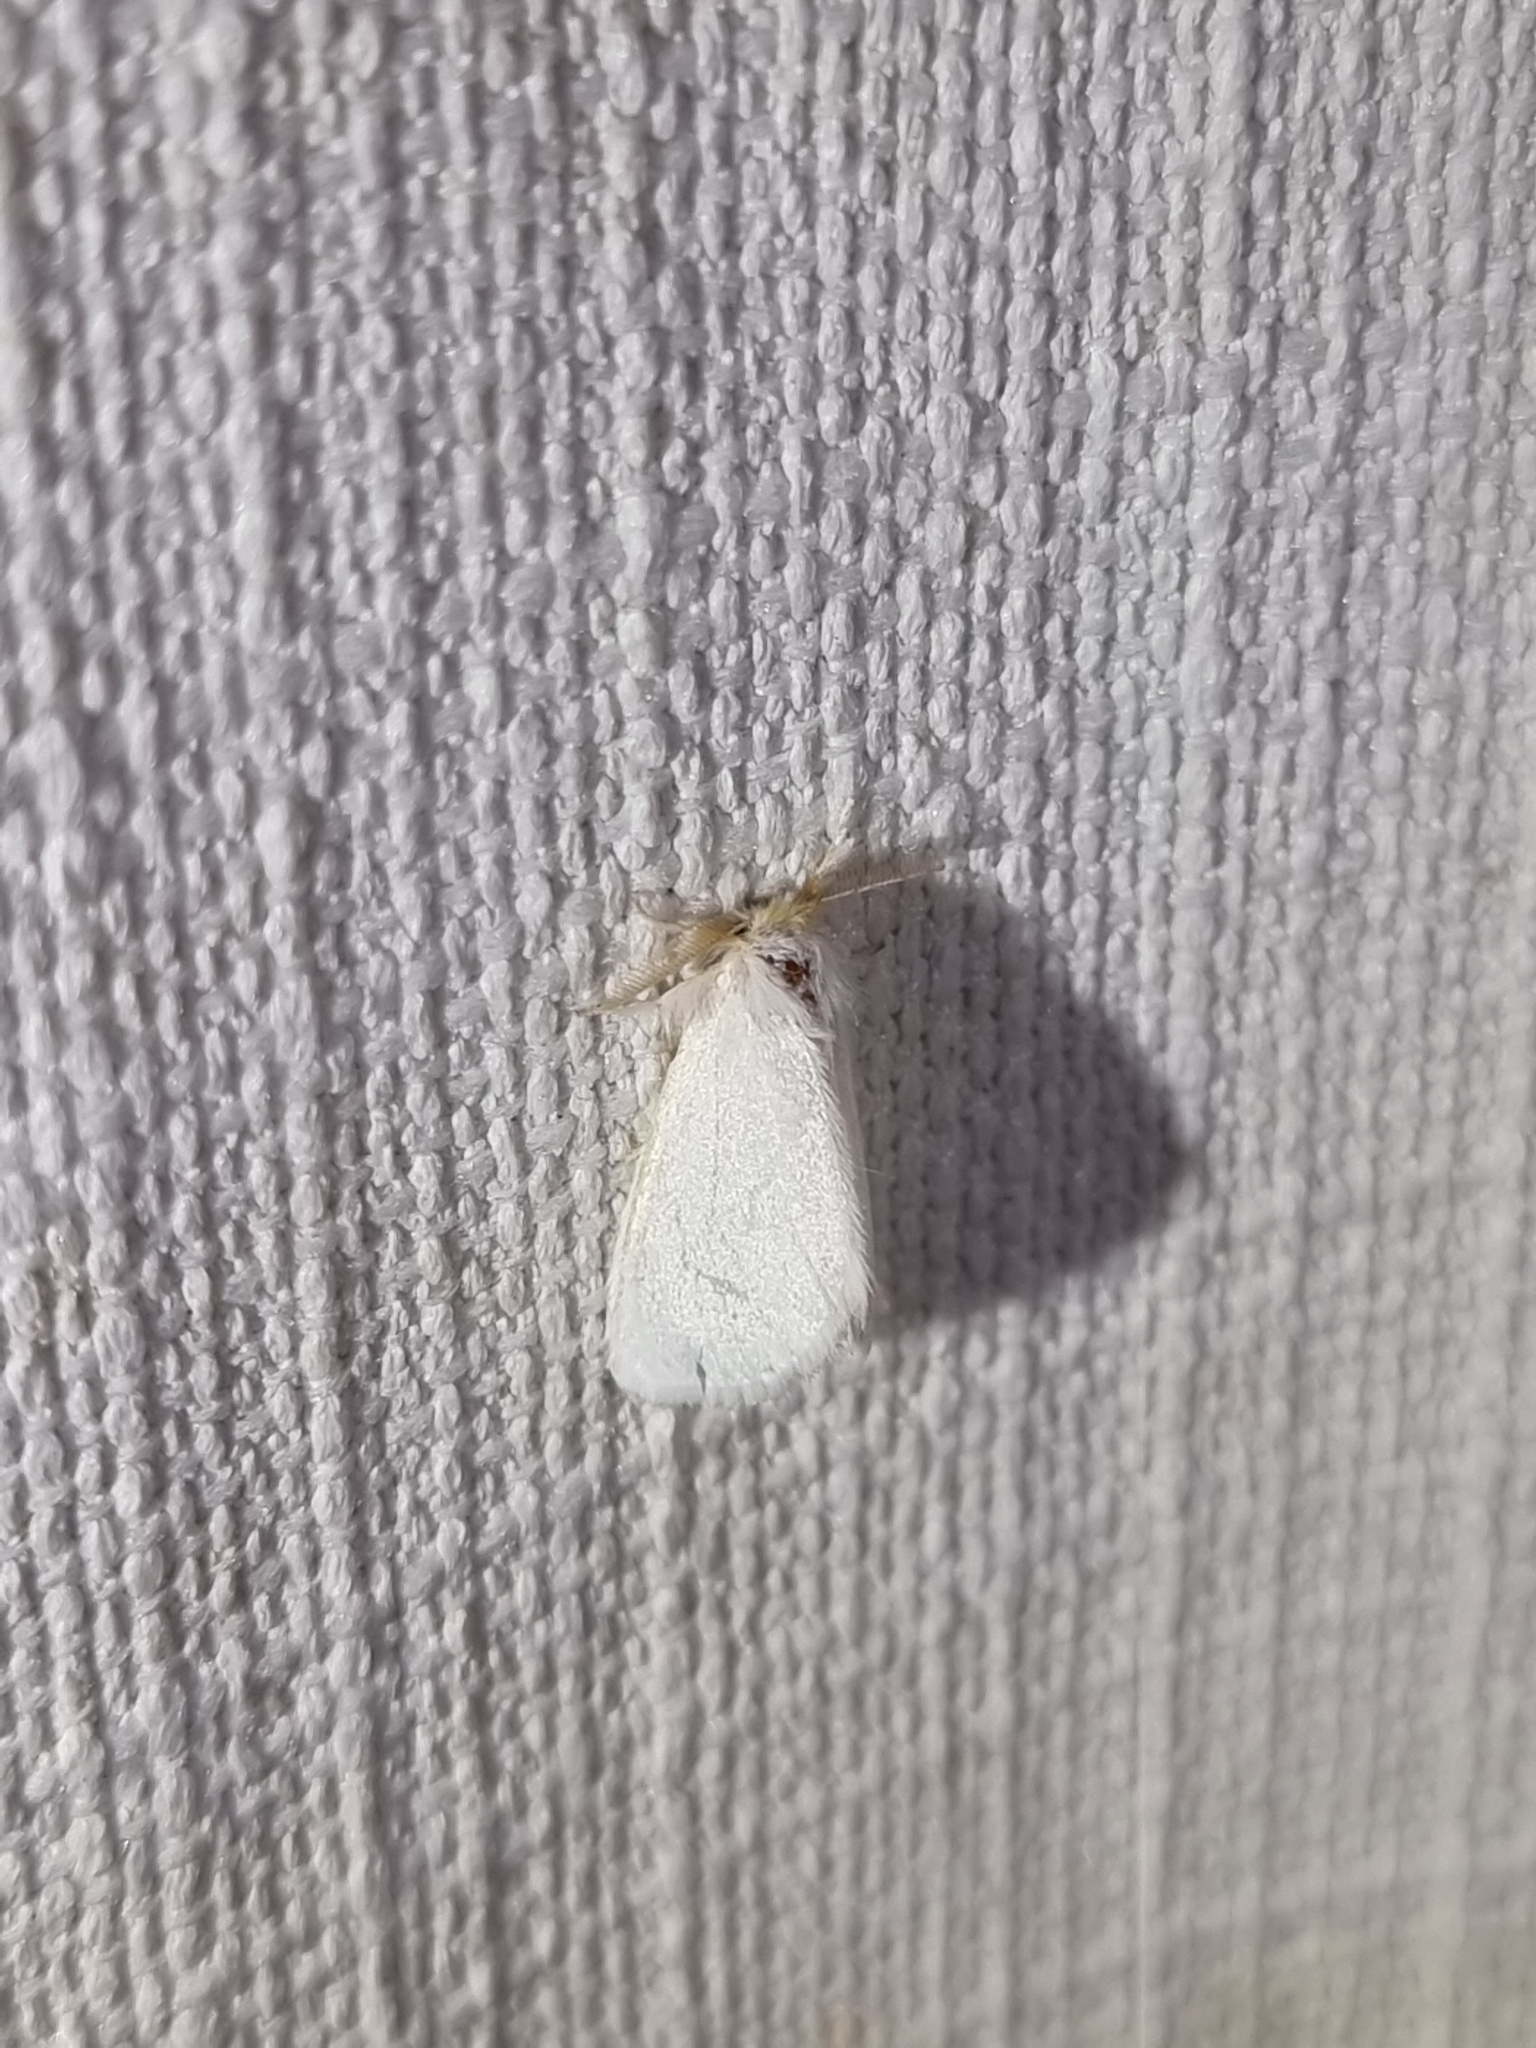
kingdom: Animalia
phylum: Arthropoda
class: Insecta
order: Lepidoptera
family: Erebidae
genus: Acyphas
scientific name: Acyphas chionitis
